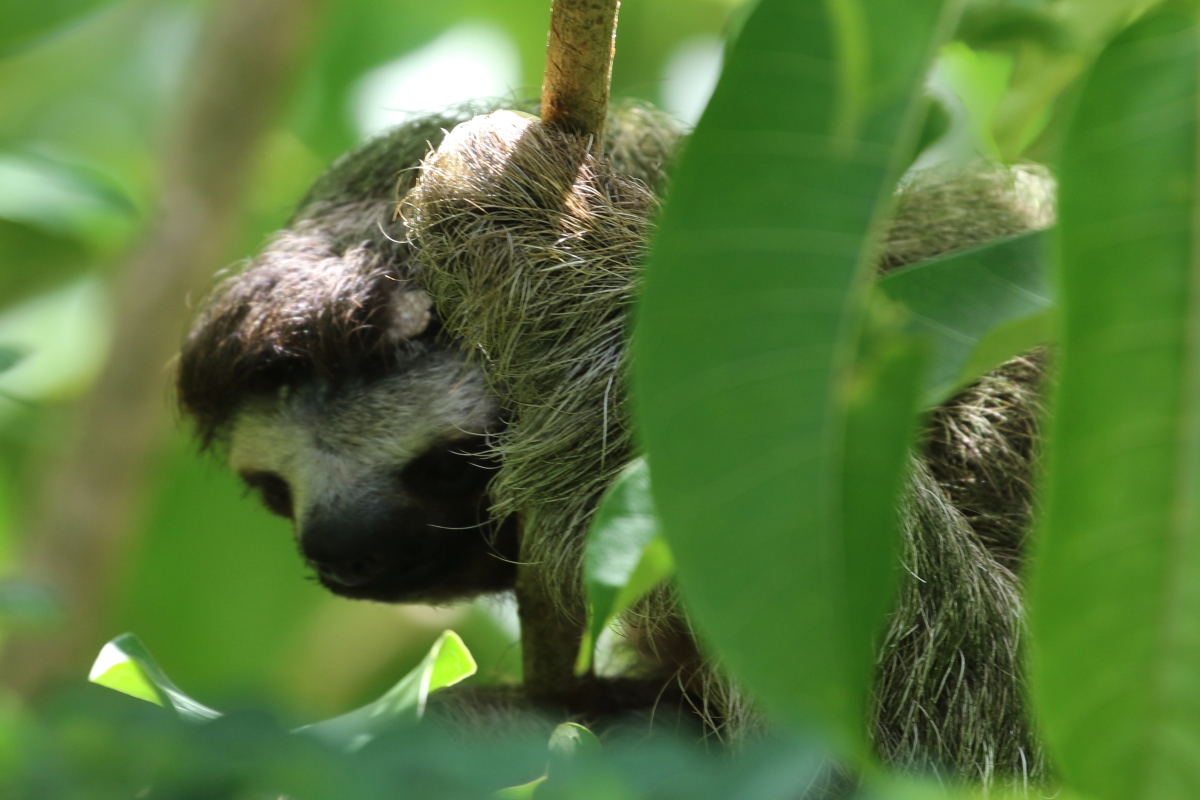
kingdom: Animalia
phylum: Chordata
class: Mammalia
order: Pilosa
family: Bradypodidae
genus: Bradypus
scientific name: Bradypus variegatus
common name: Brown-throated three-toed sloth
